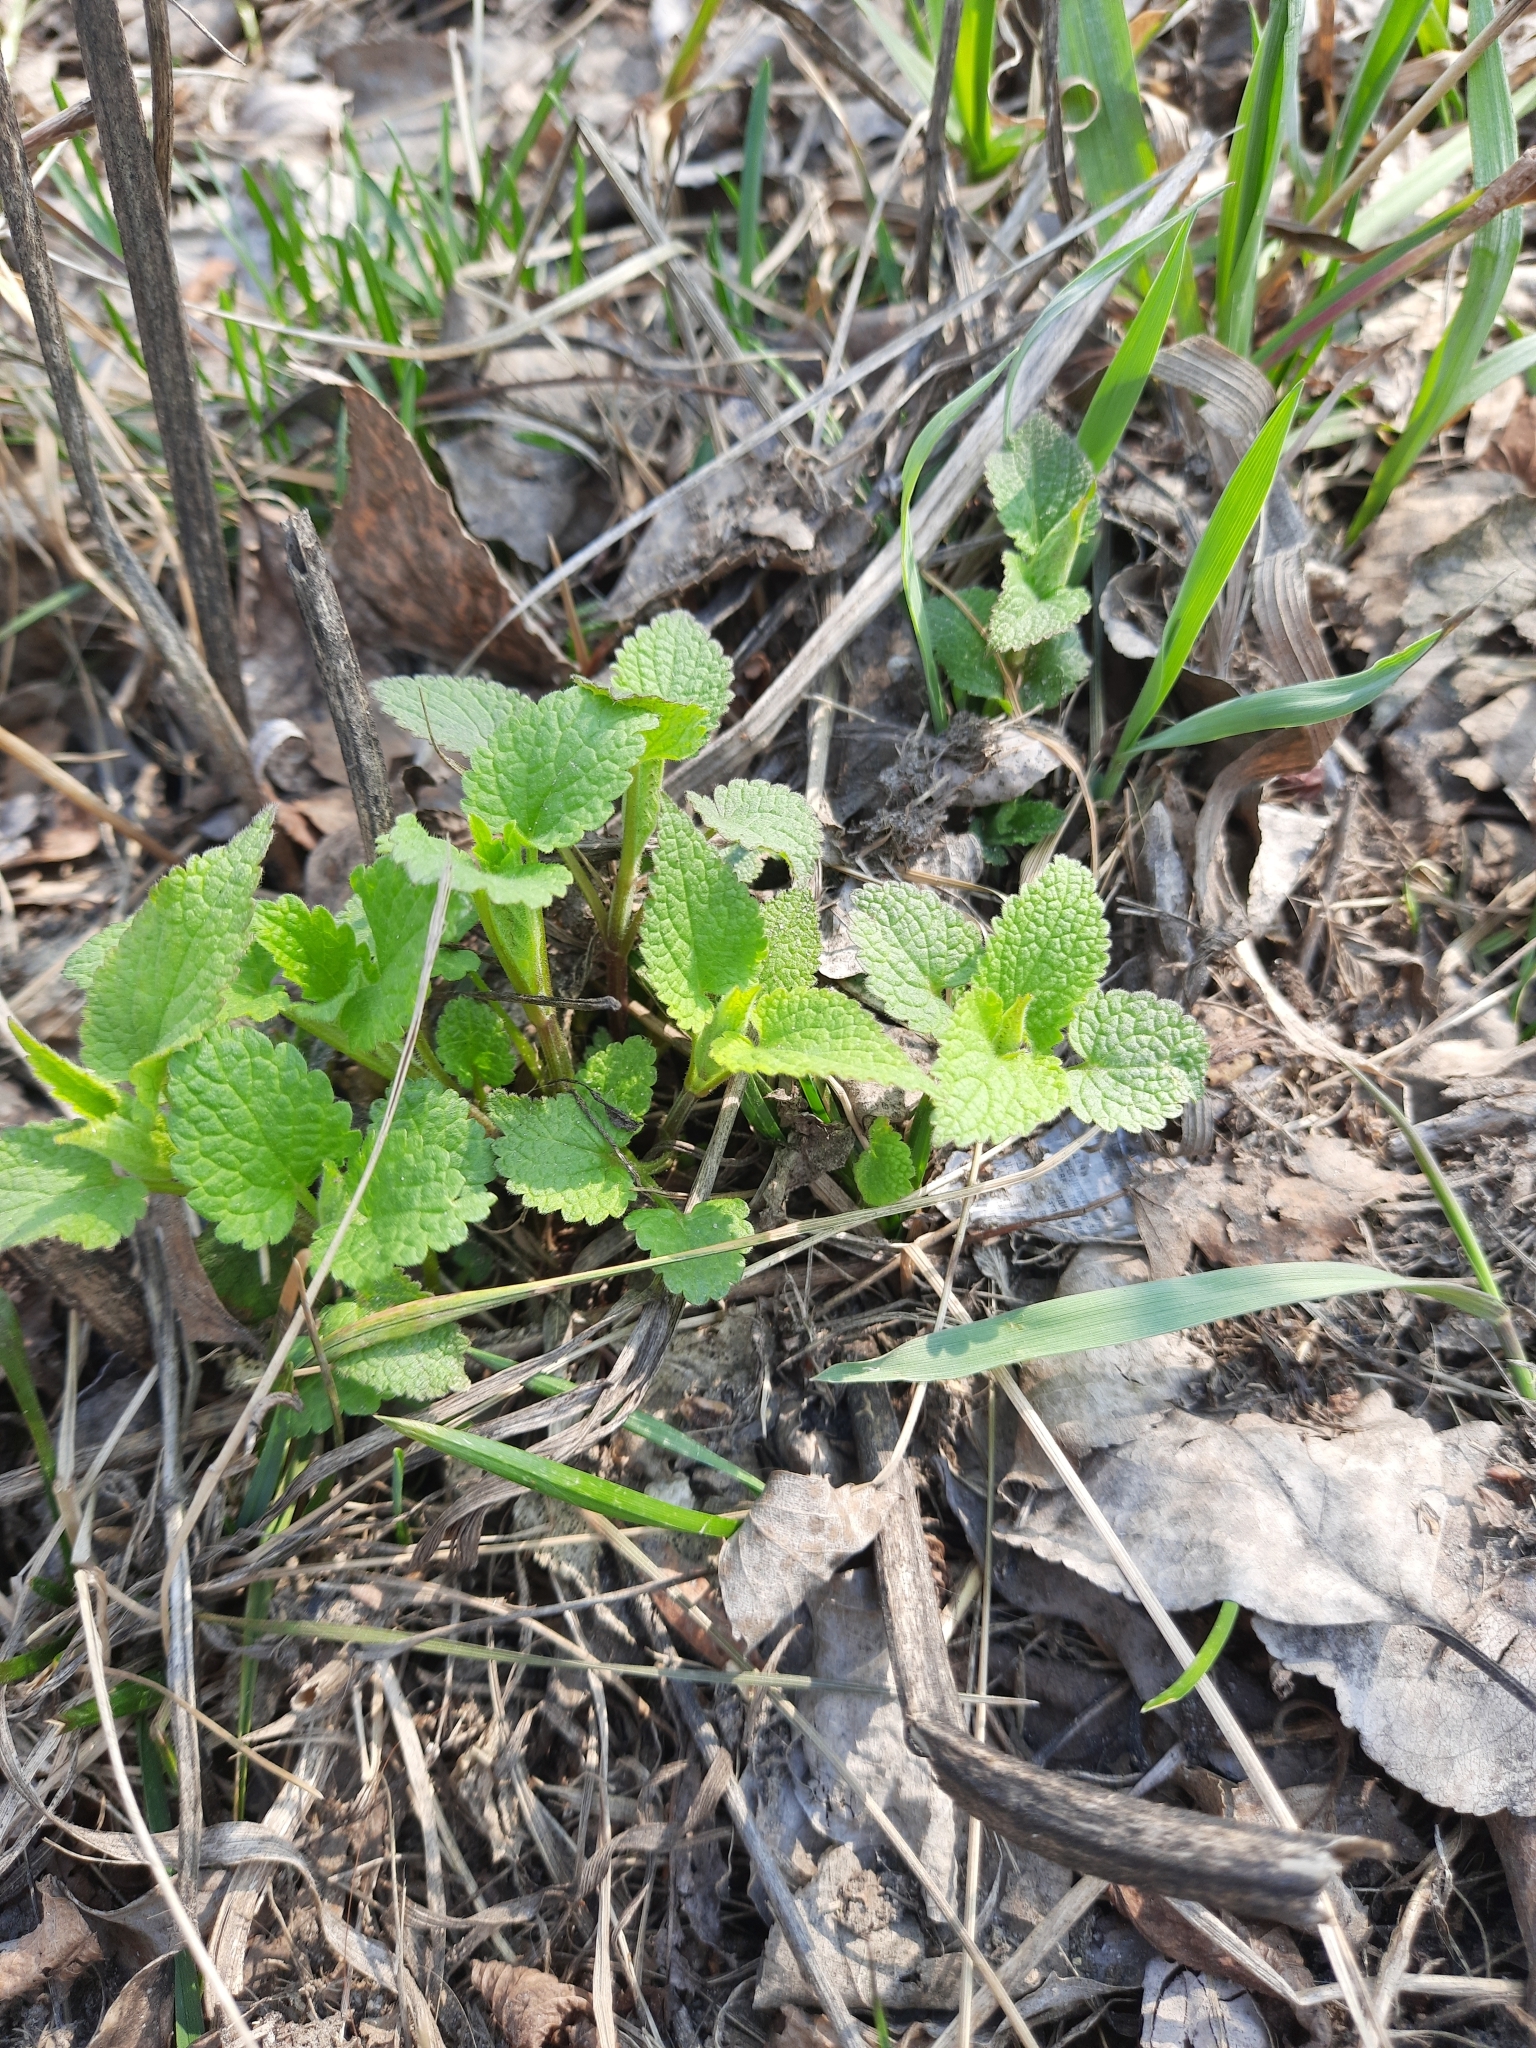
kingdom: Plantae
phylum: Tracheophyta
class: Magnoliopsida
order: Lamiales
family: Lamiaceae
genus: Lamium
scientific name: Lamium album
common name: White dead-nettle
